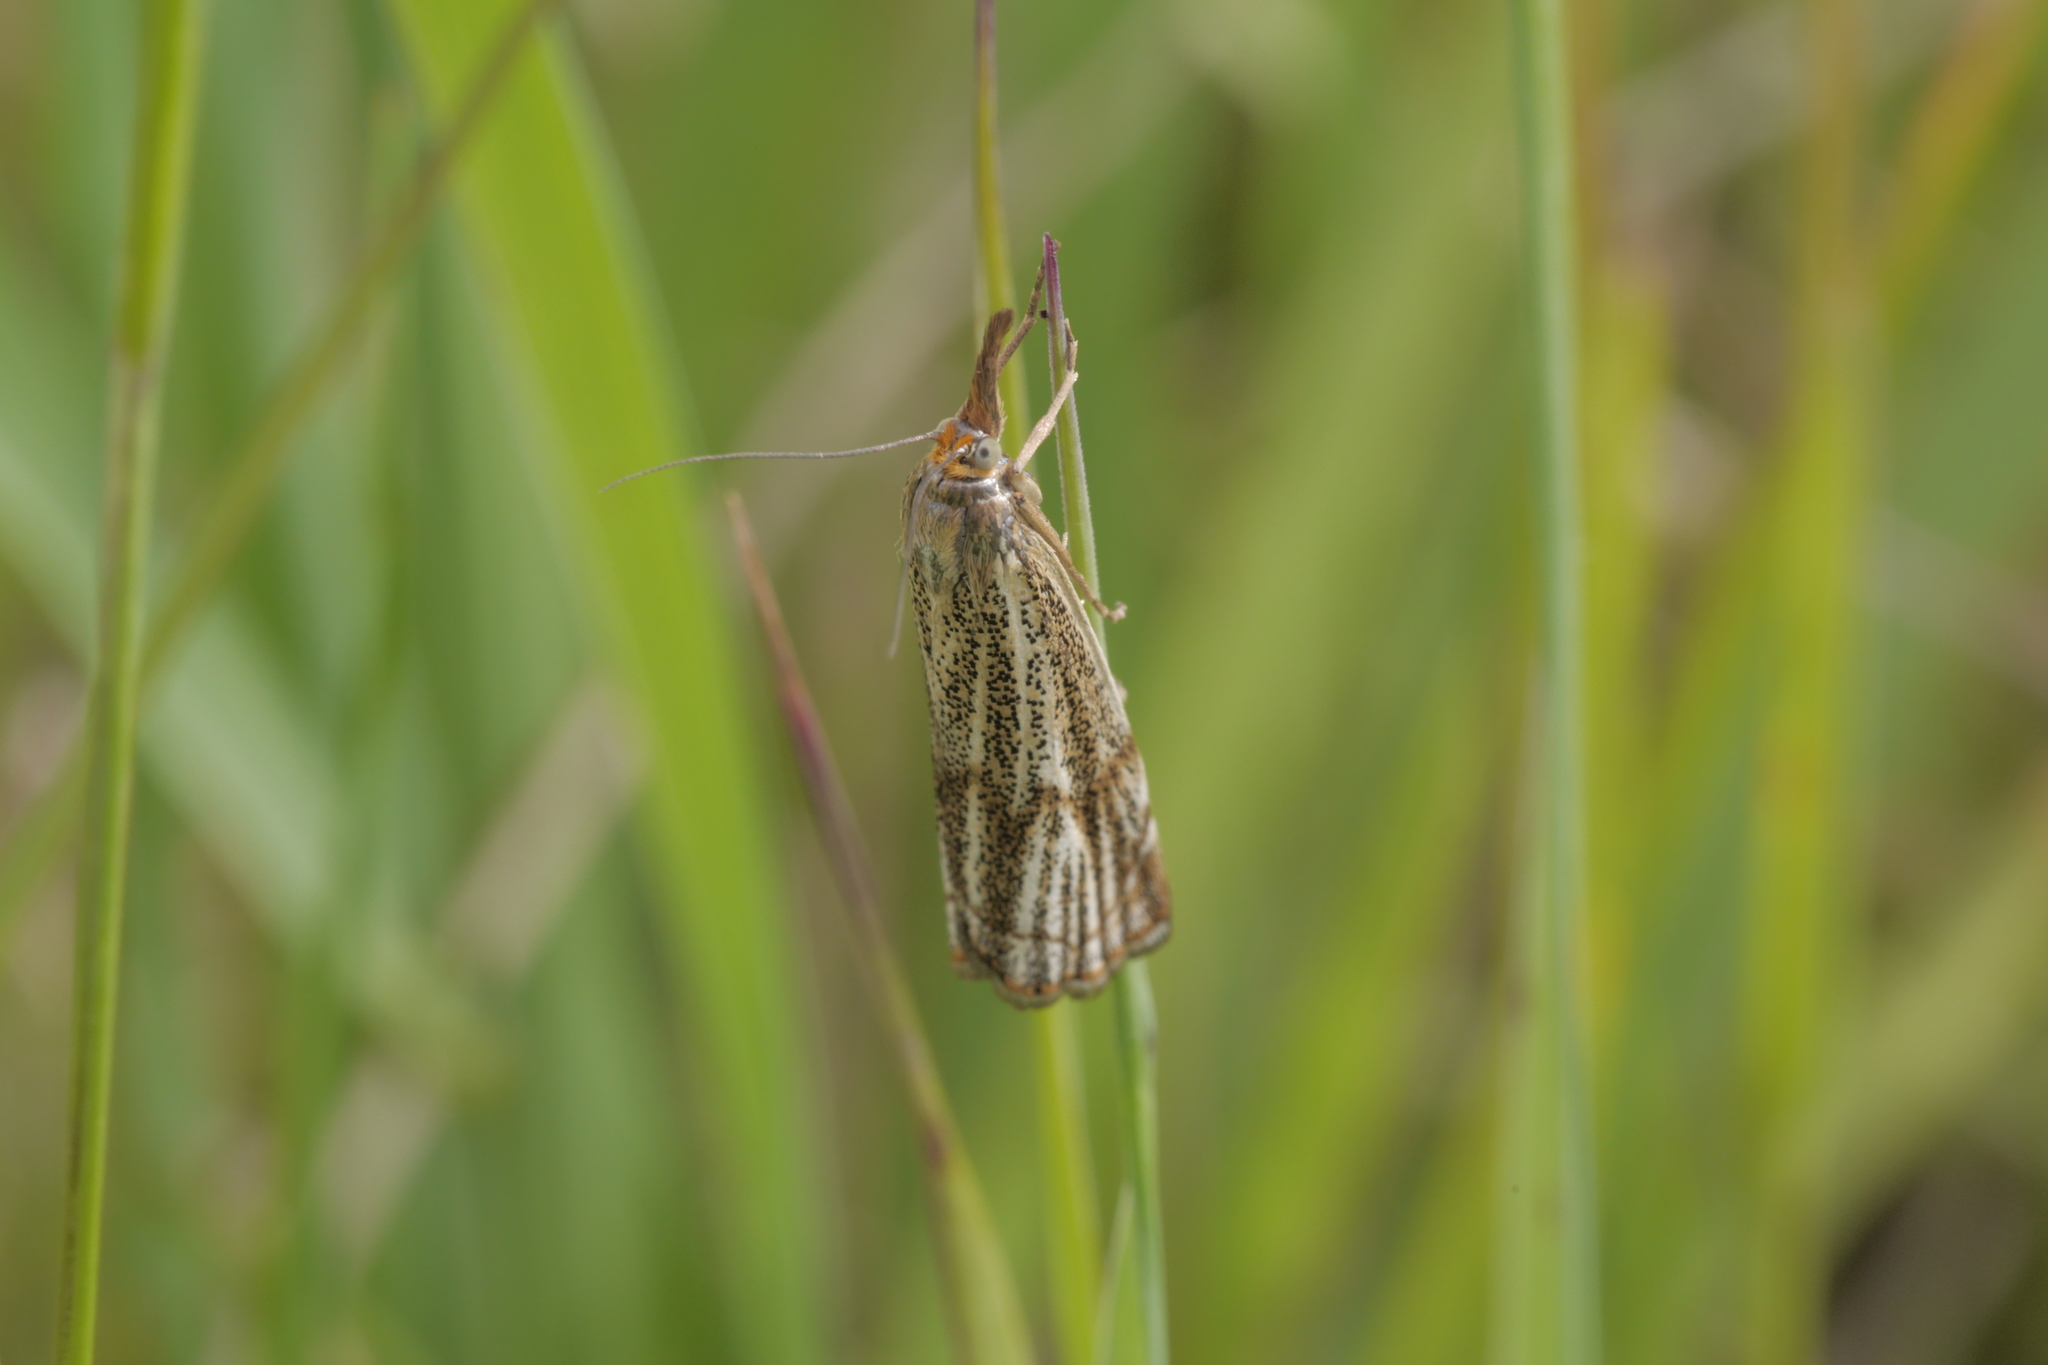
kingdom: Animalia
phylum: Arthropoda
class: Insecta
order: Lepidoptera
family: Crambidae
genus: Thisanotia
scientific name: Thisanotia chrysonuchella
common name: Powdered grass-veneer
